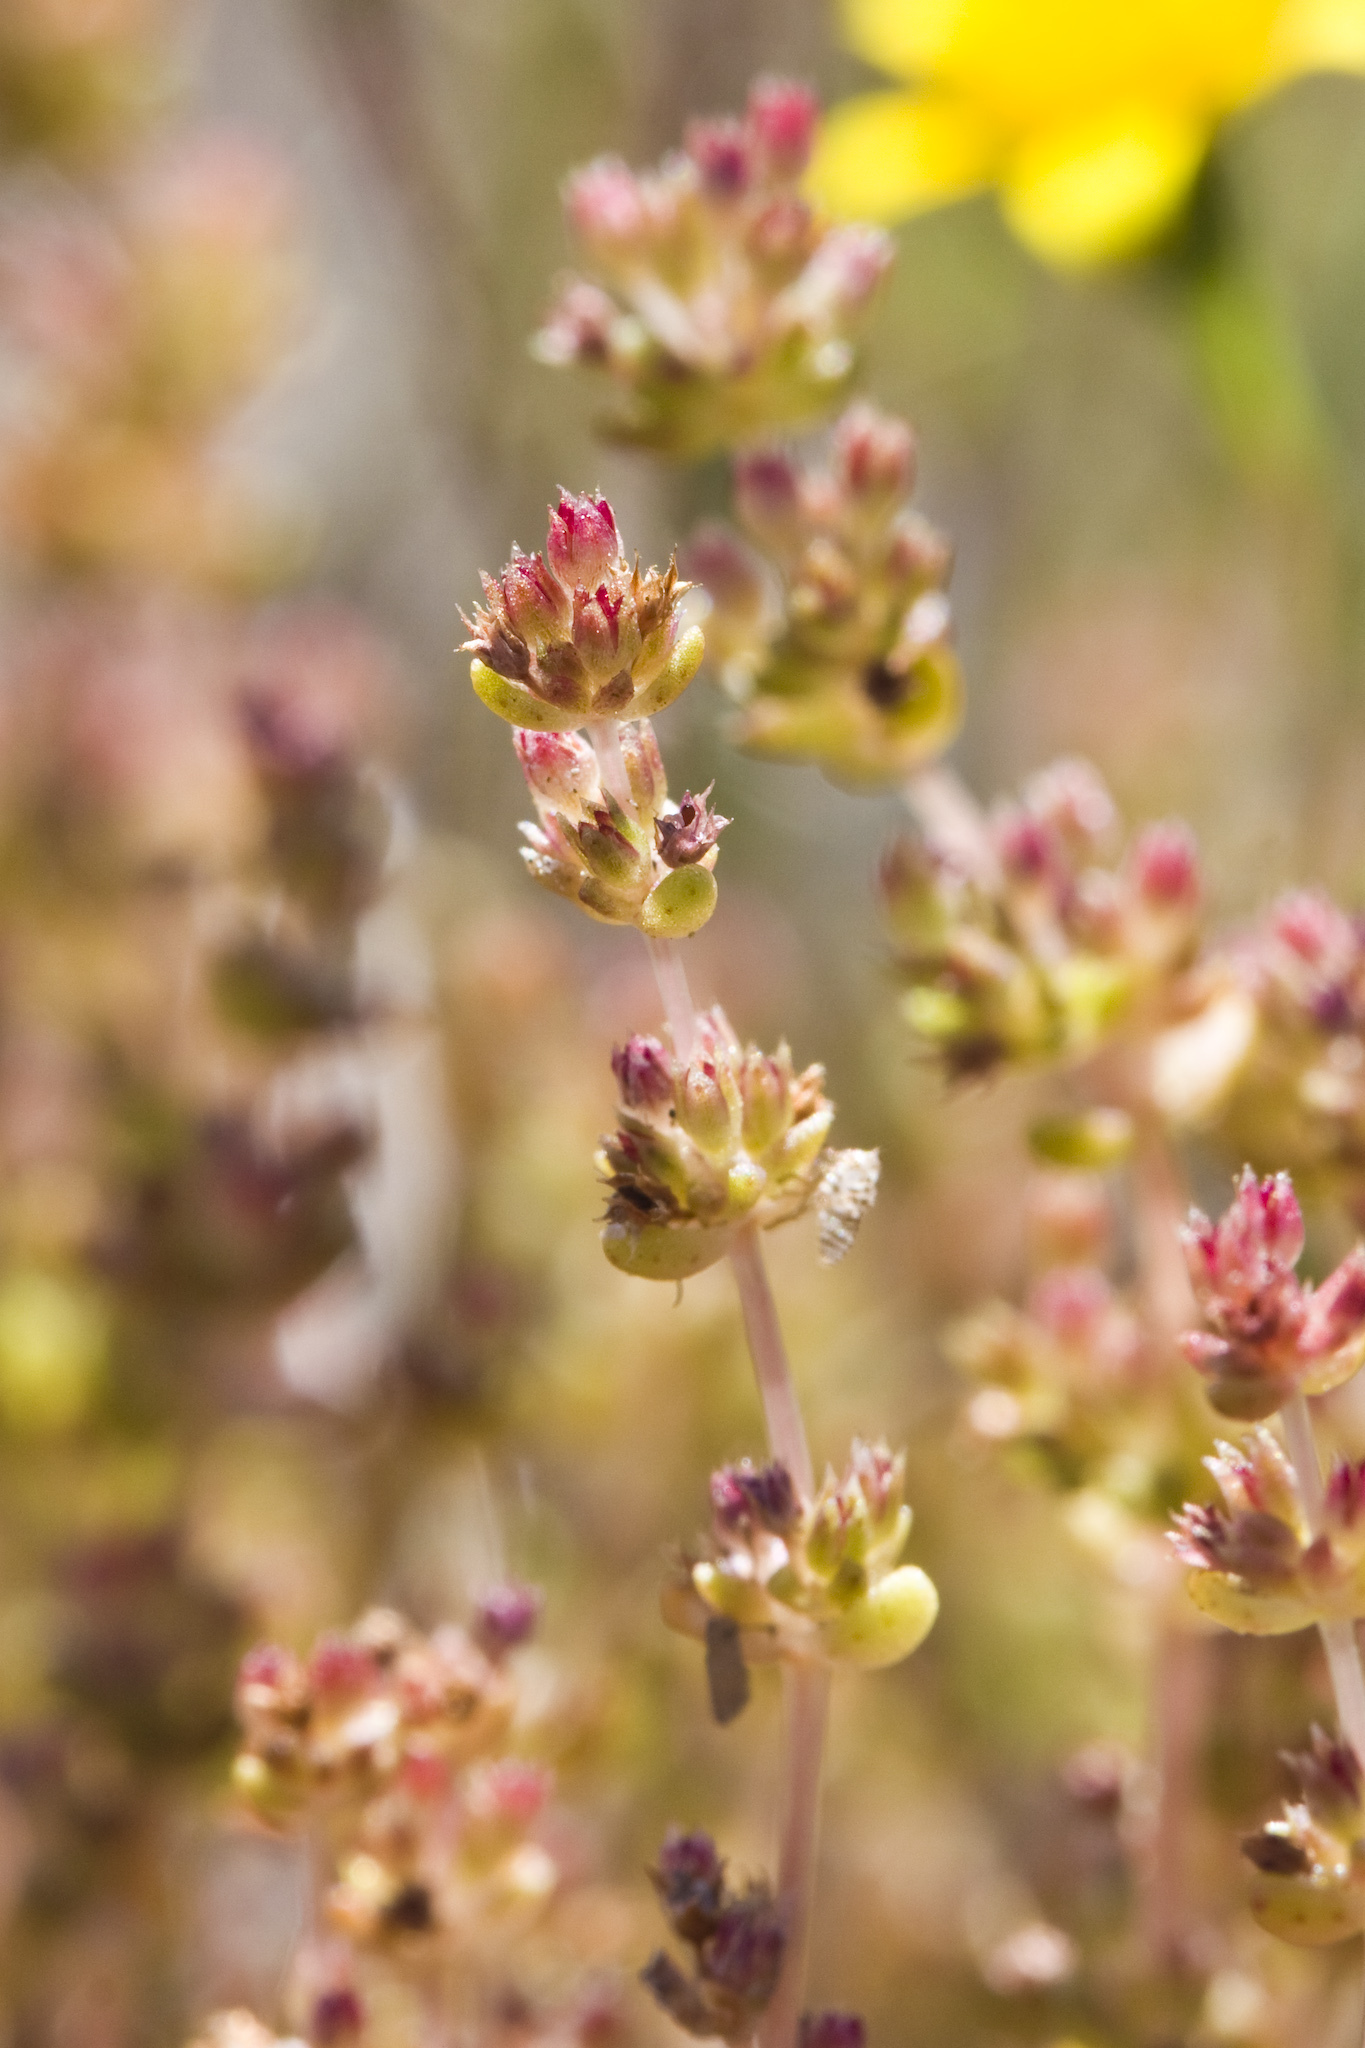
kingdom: Plantae
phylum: Tracheophyta
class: Magnoliopsida
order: Saxifragales
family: Crassulaceae
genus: Crassula
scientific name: Crassula connata
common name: Erect pygmyweed
